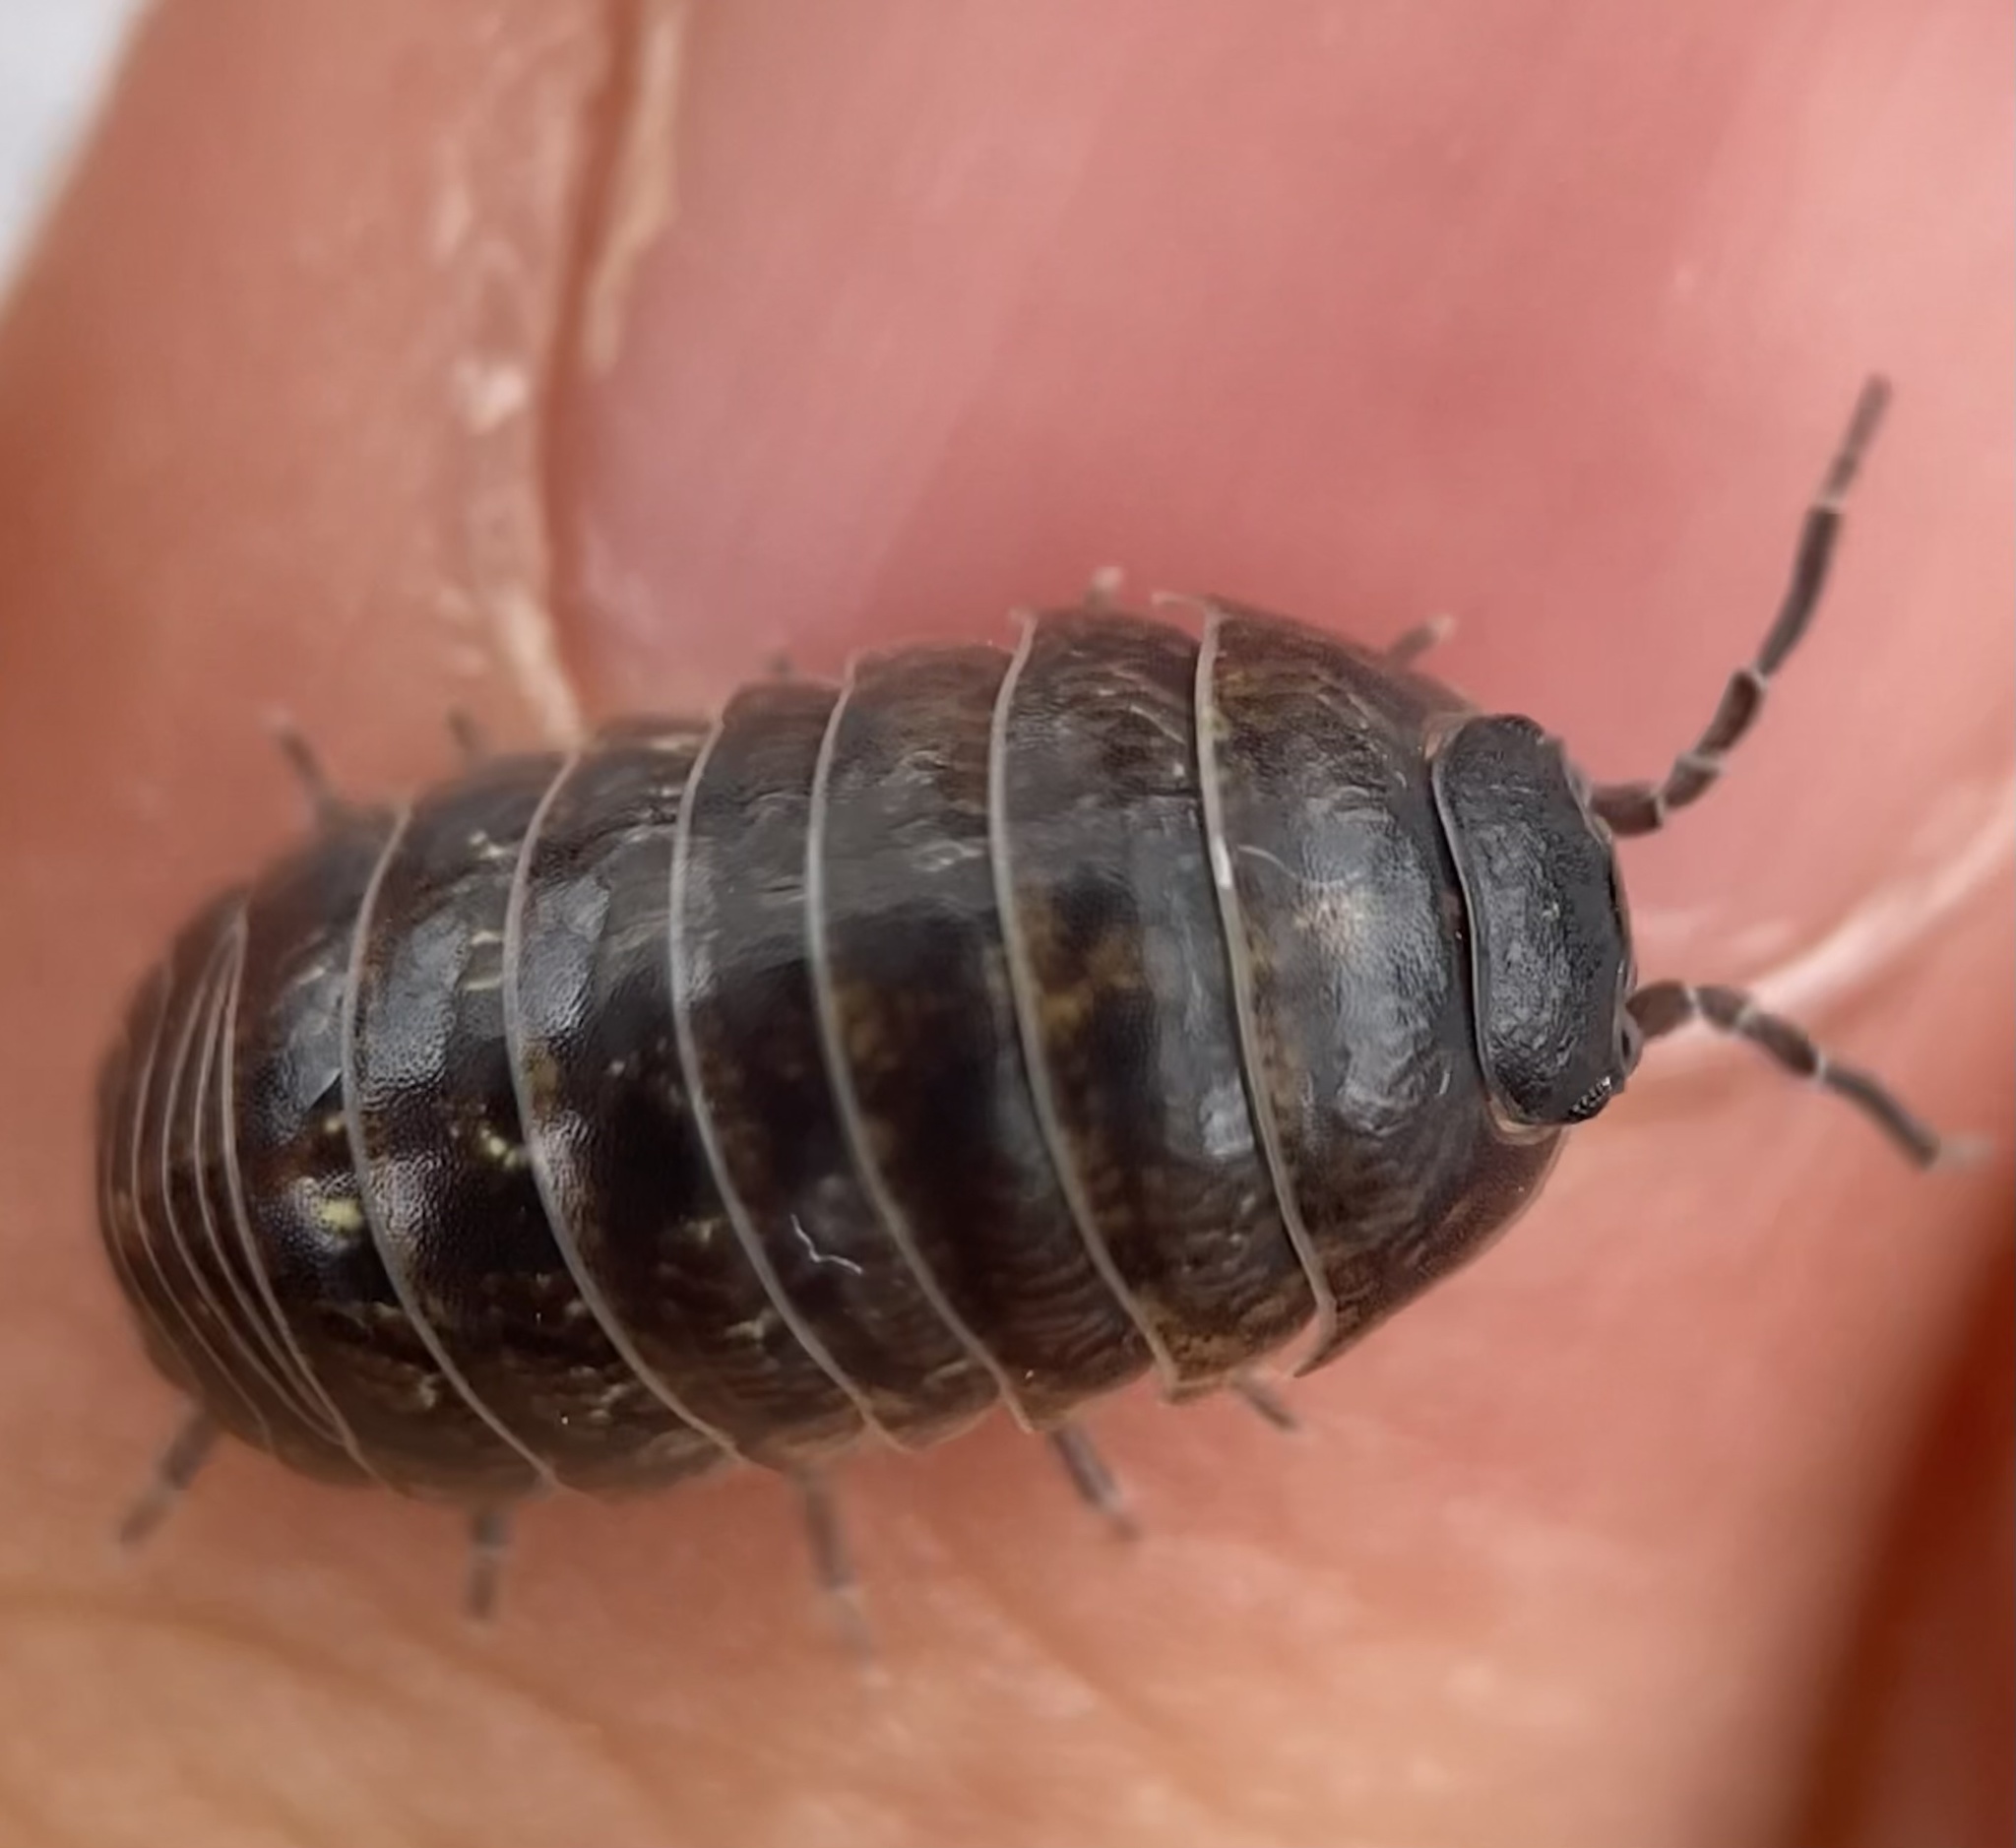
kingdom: Animalia
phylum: Arthropoda
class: Malacostraca
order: Isopoda
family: Armadillidiidae
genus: Armadillidium
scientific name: Armadillidium vulgare
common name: Common pill woodlouse
